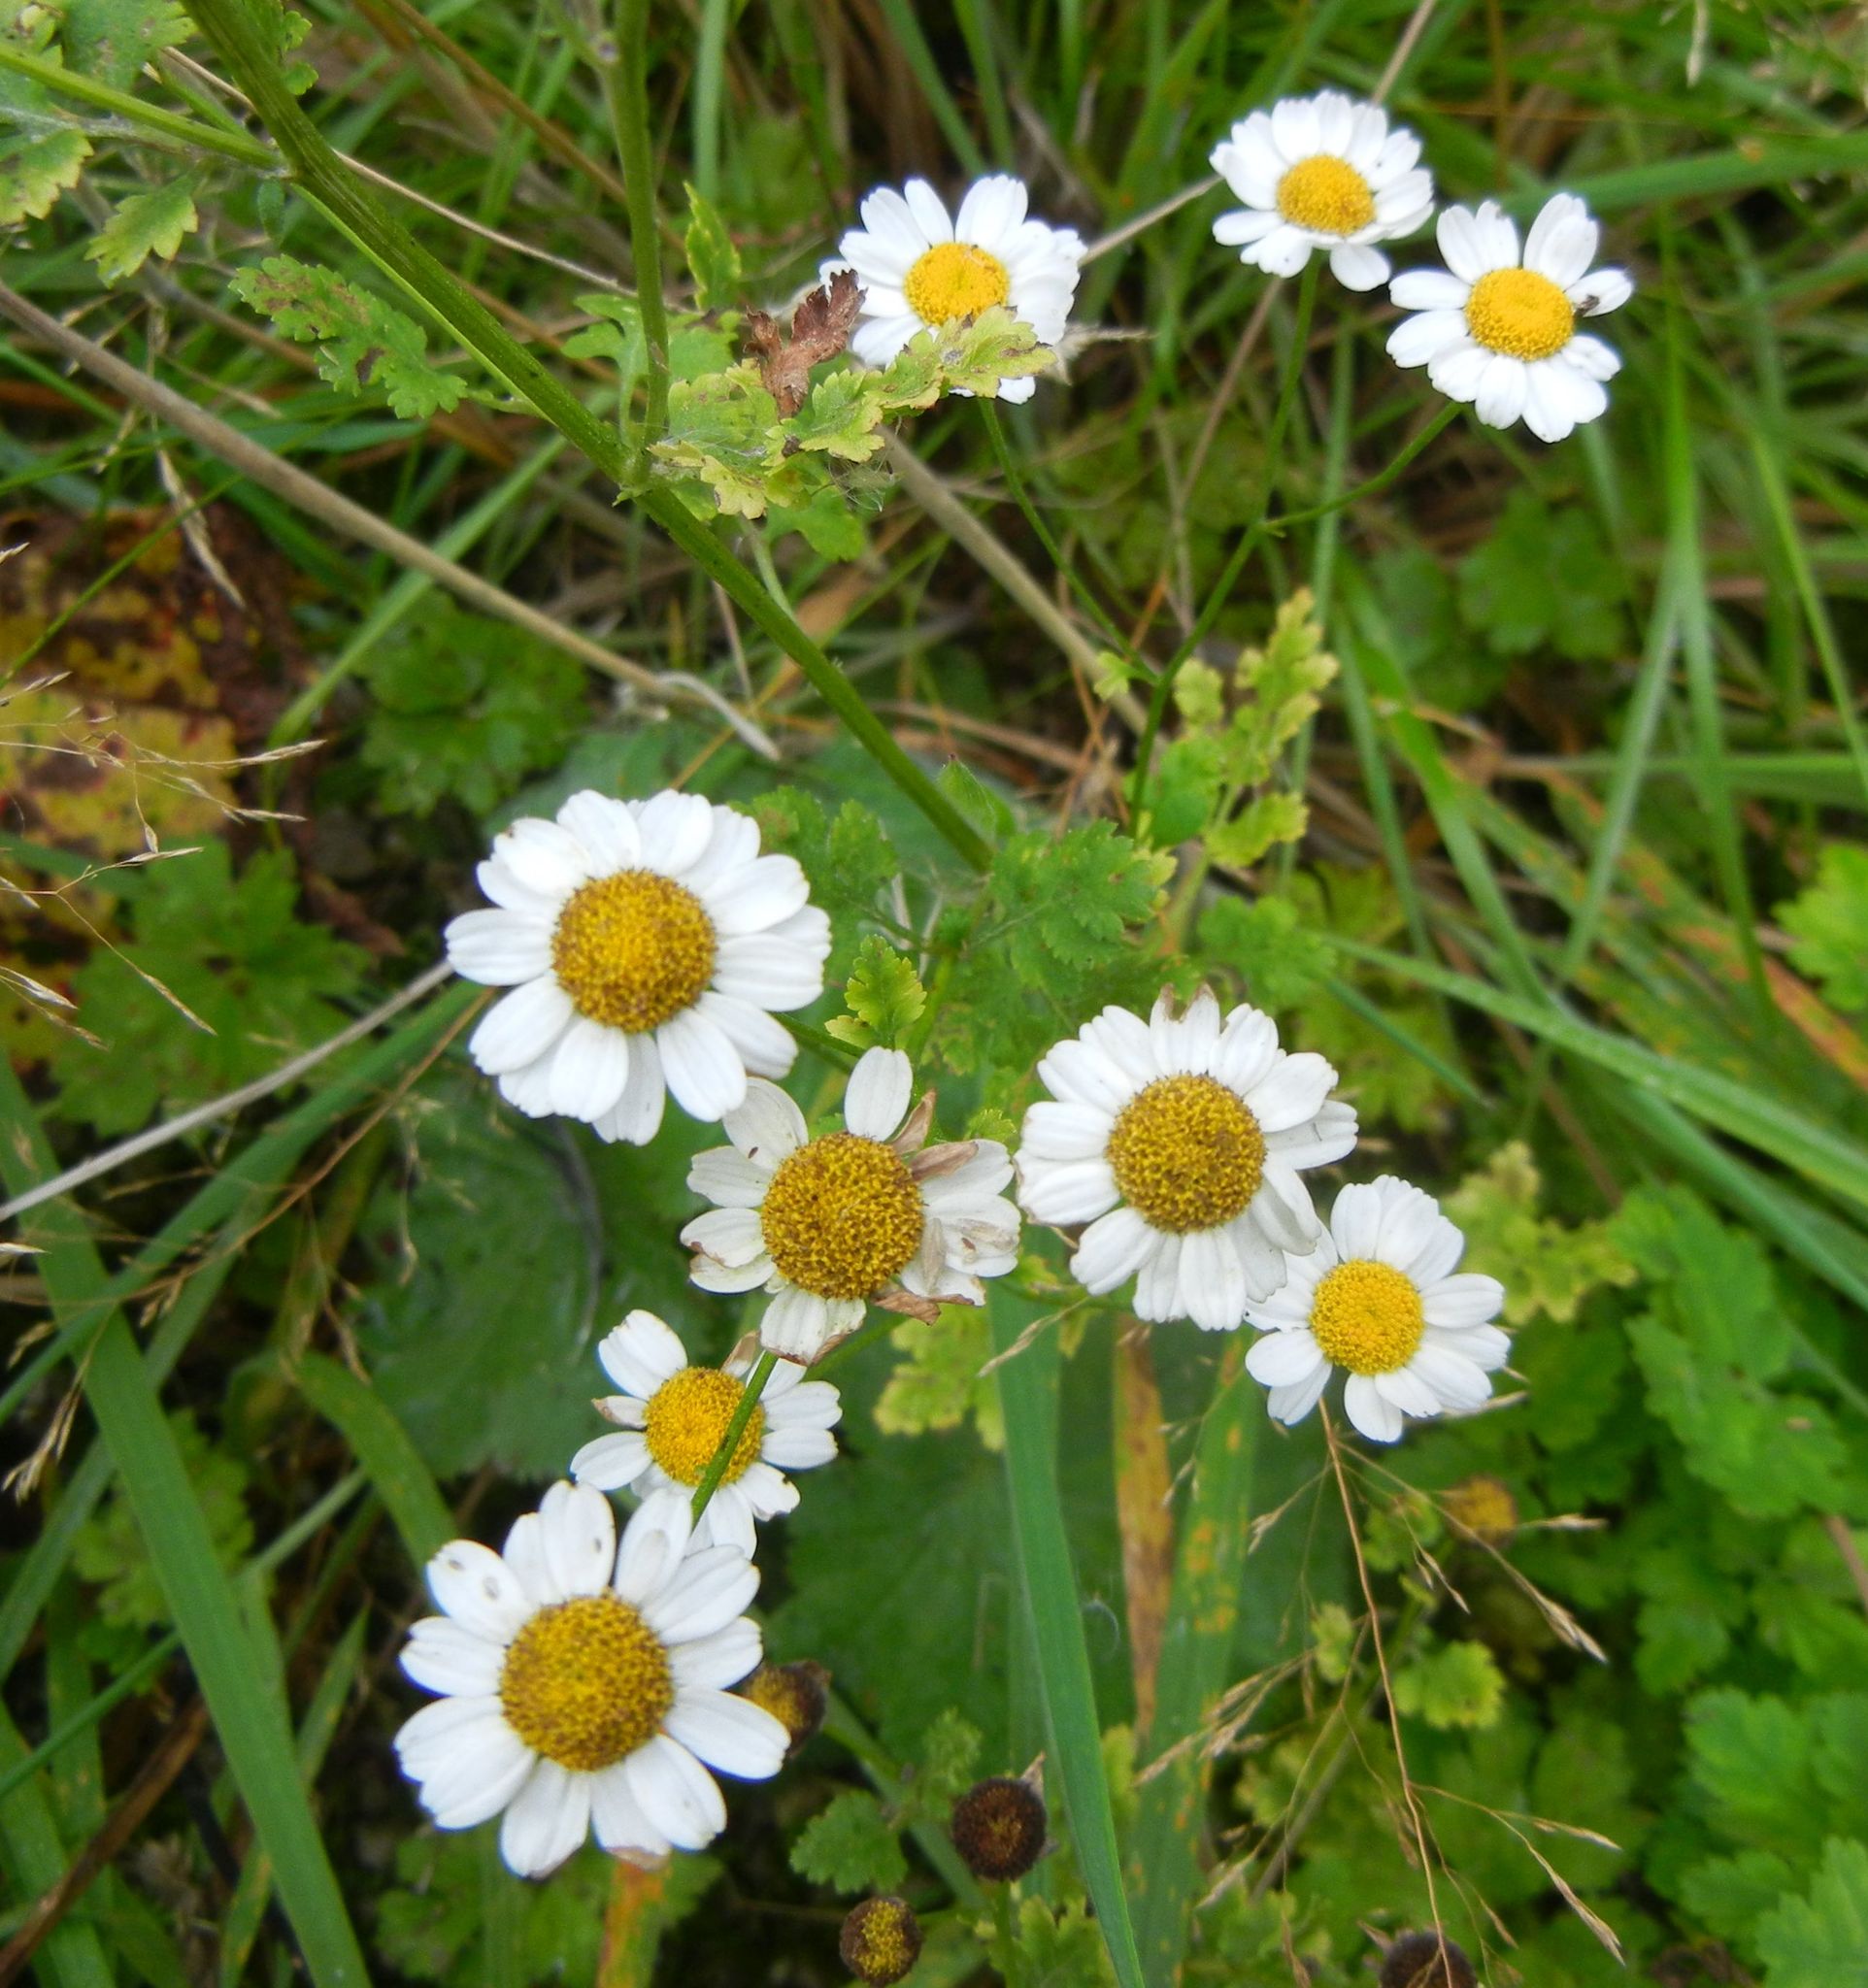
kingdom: Plantae
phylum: Tracheophyta
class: Magnoliopsida
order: Asterales
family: Asteraceae
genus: Tanacetum
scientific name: Tanacetum parthenium
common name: Feverfew
